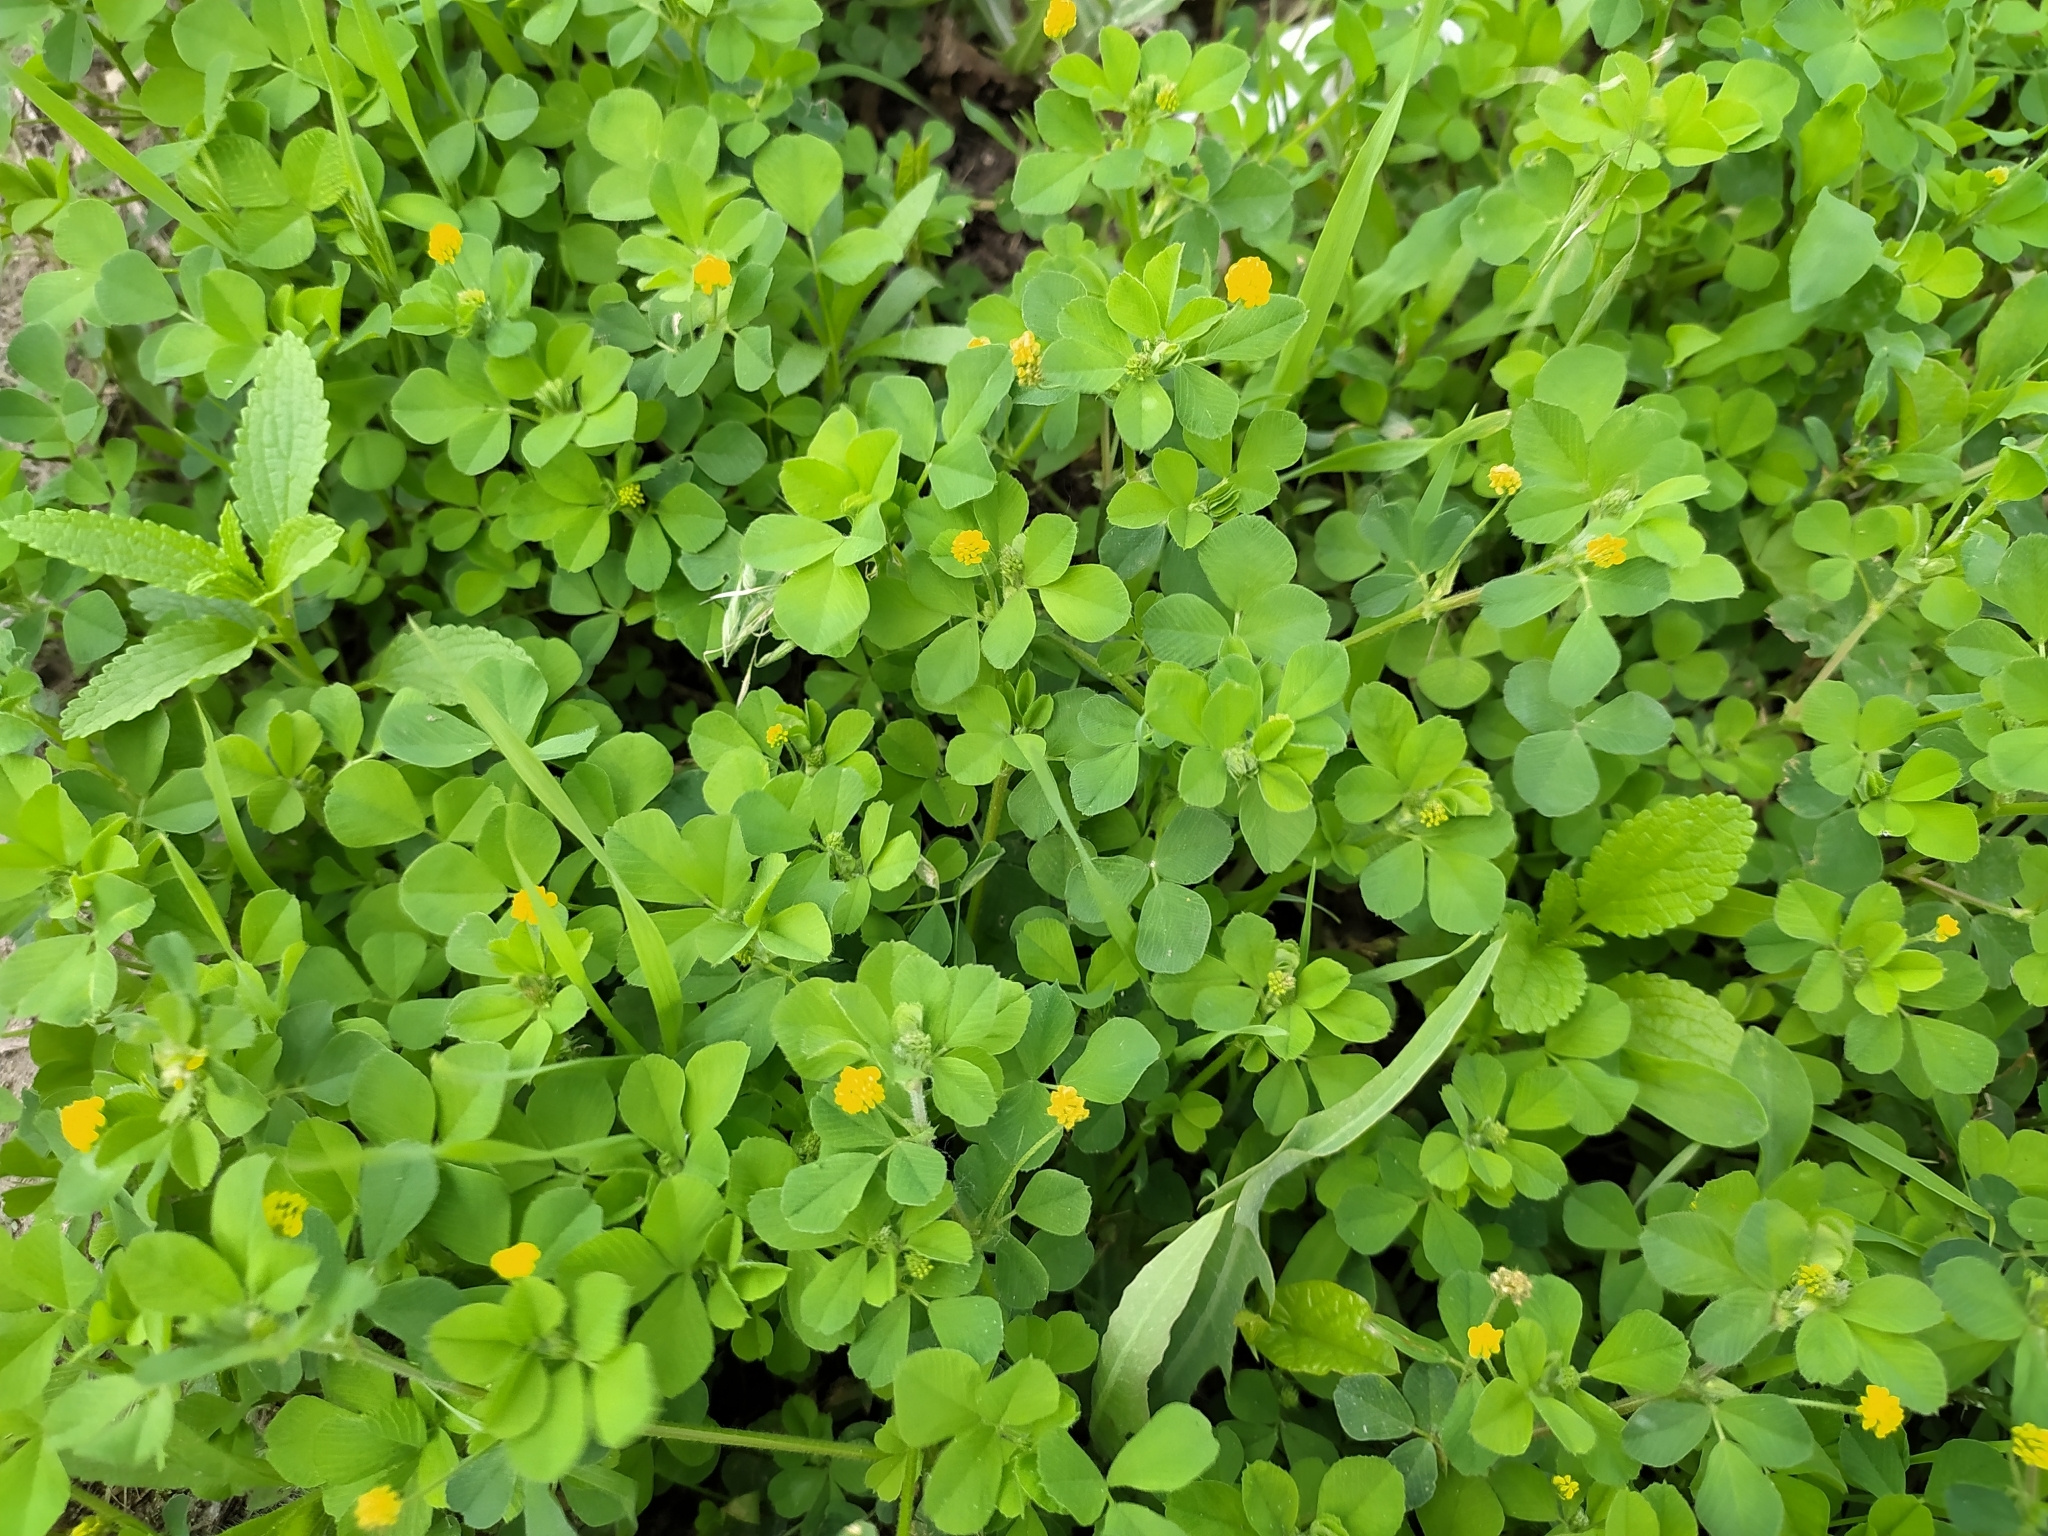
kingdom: Plantae
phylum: Tracheophyta
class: Magnoliopsida
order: Fabales
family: Fabaceae
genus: Medicago
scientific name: Medicago lupulina
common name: Black medick
